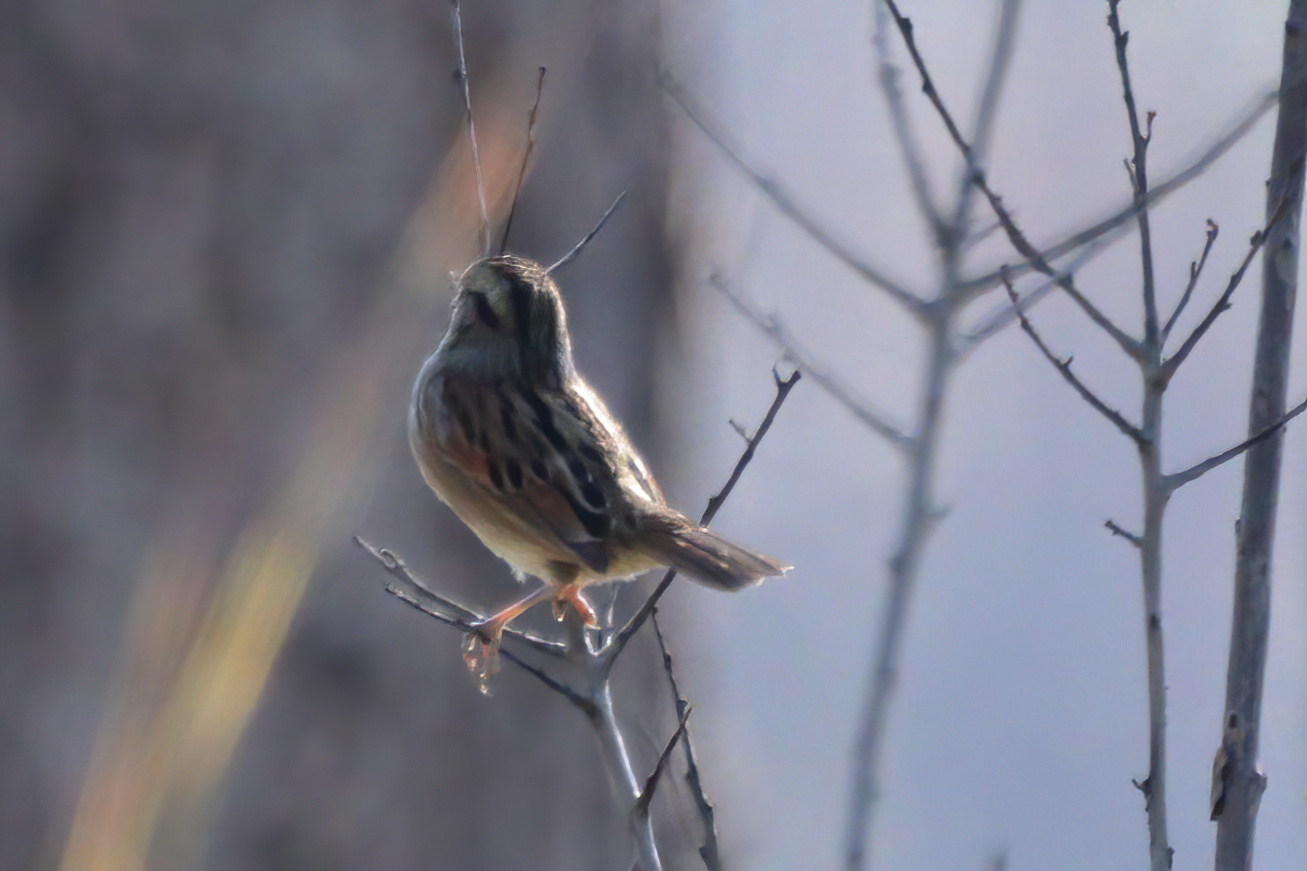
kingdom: Animalia
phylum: Chordata
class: Aves
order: Passeriformes
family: Passerellidae
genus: Melospiza
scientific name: Melospiza georgiana
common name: Swamp sparrow
